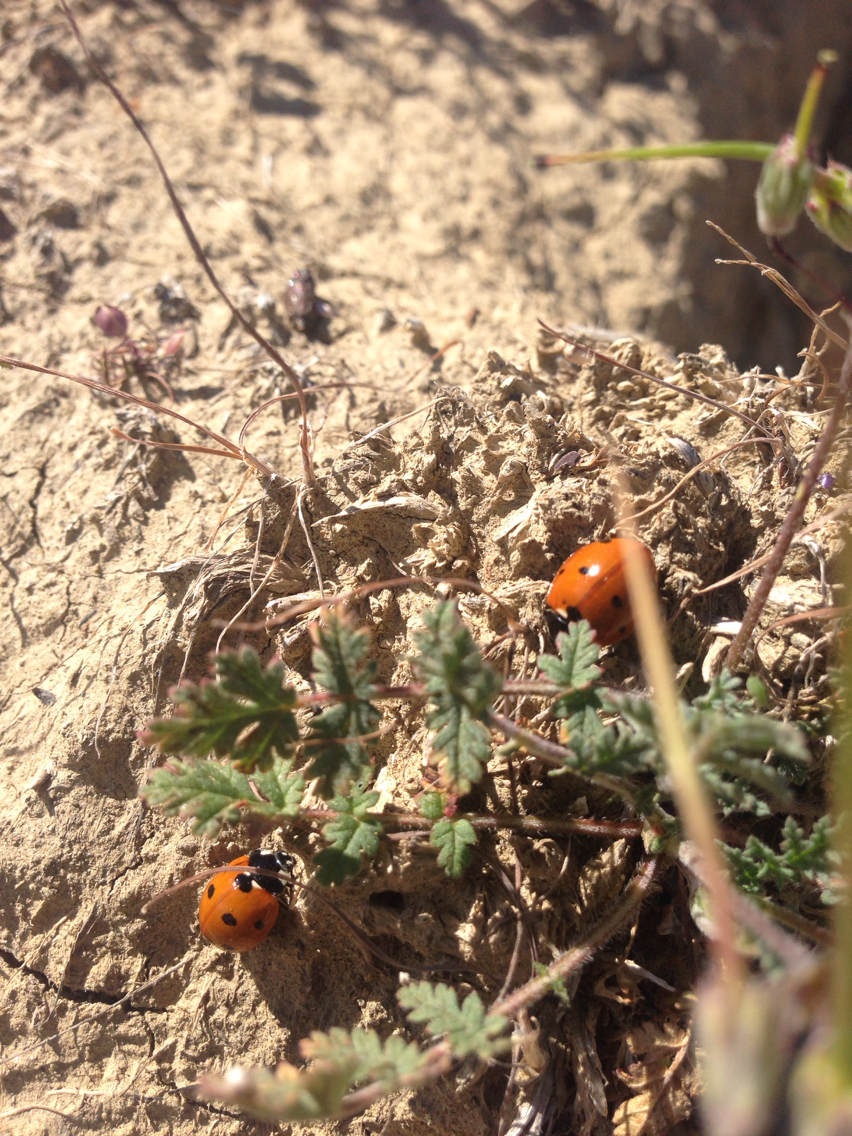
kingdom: Animalia
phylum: Arthropoda
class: Insecta
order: Coleoptera
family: Coccinellidae
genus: Coccinella
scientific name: Coccinella septempunctata
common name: Sevenspotted lady beetle
